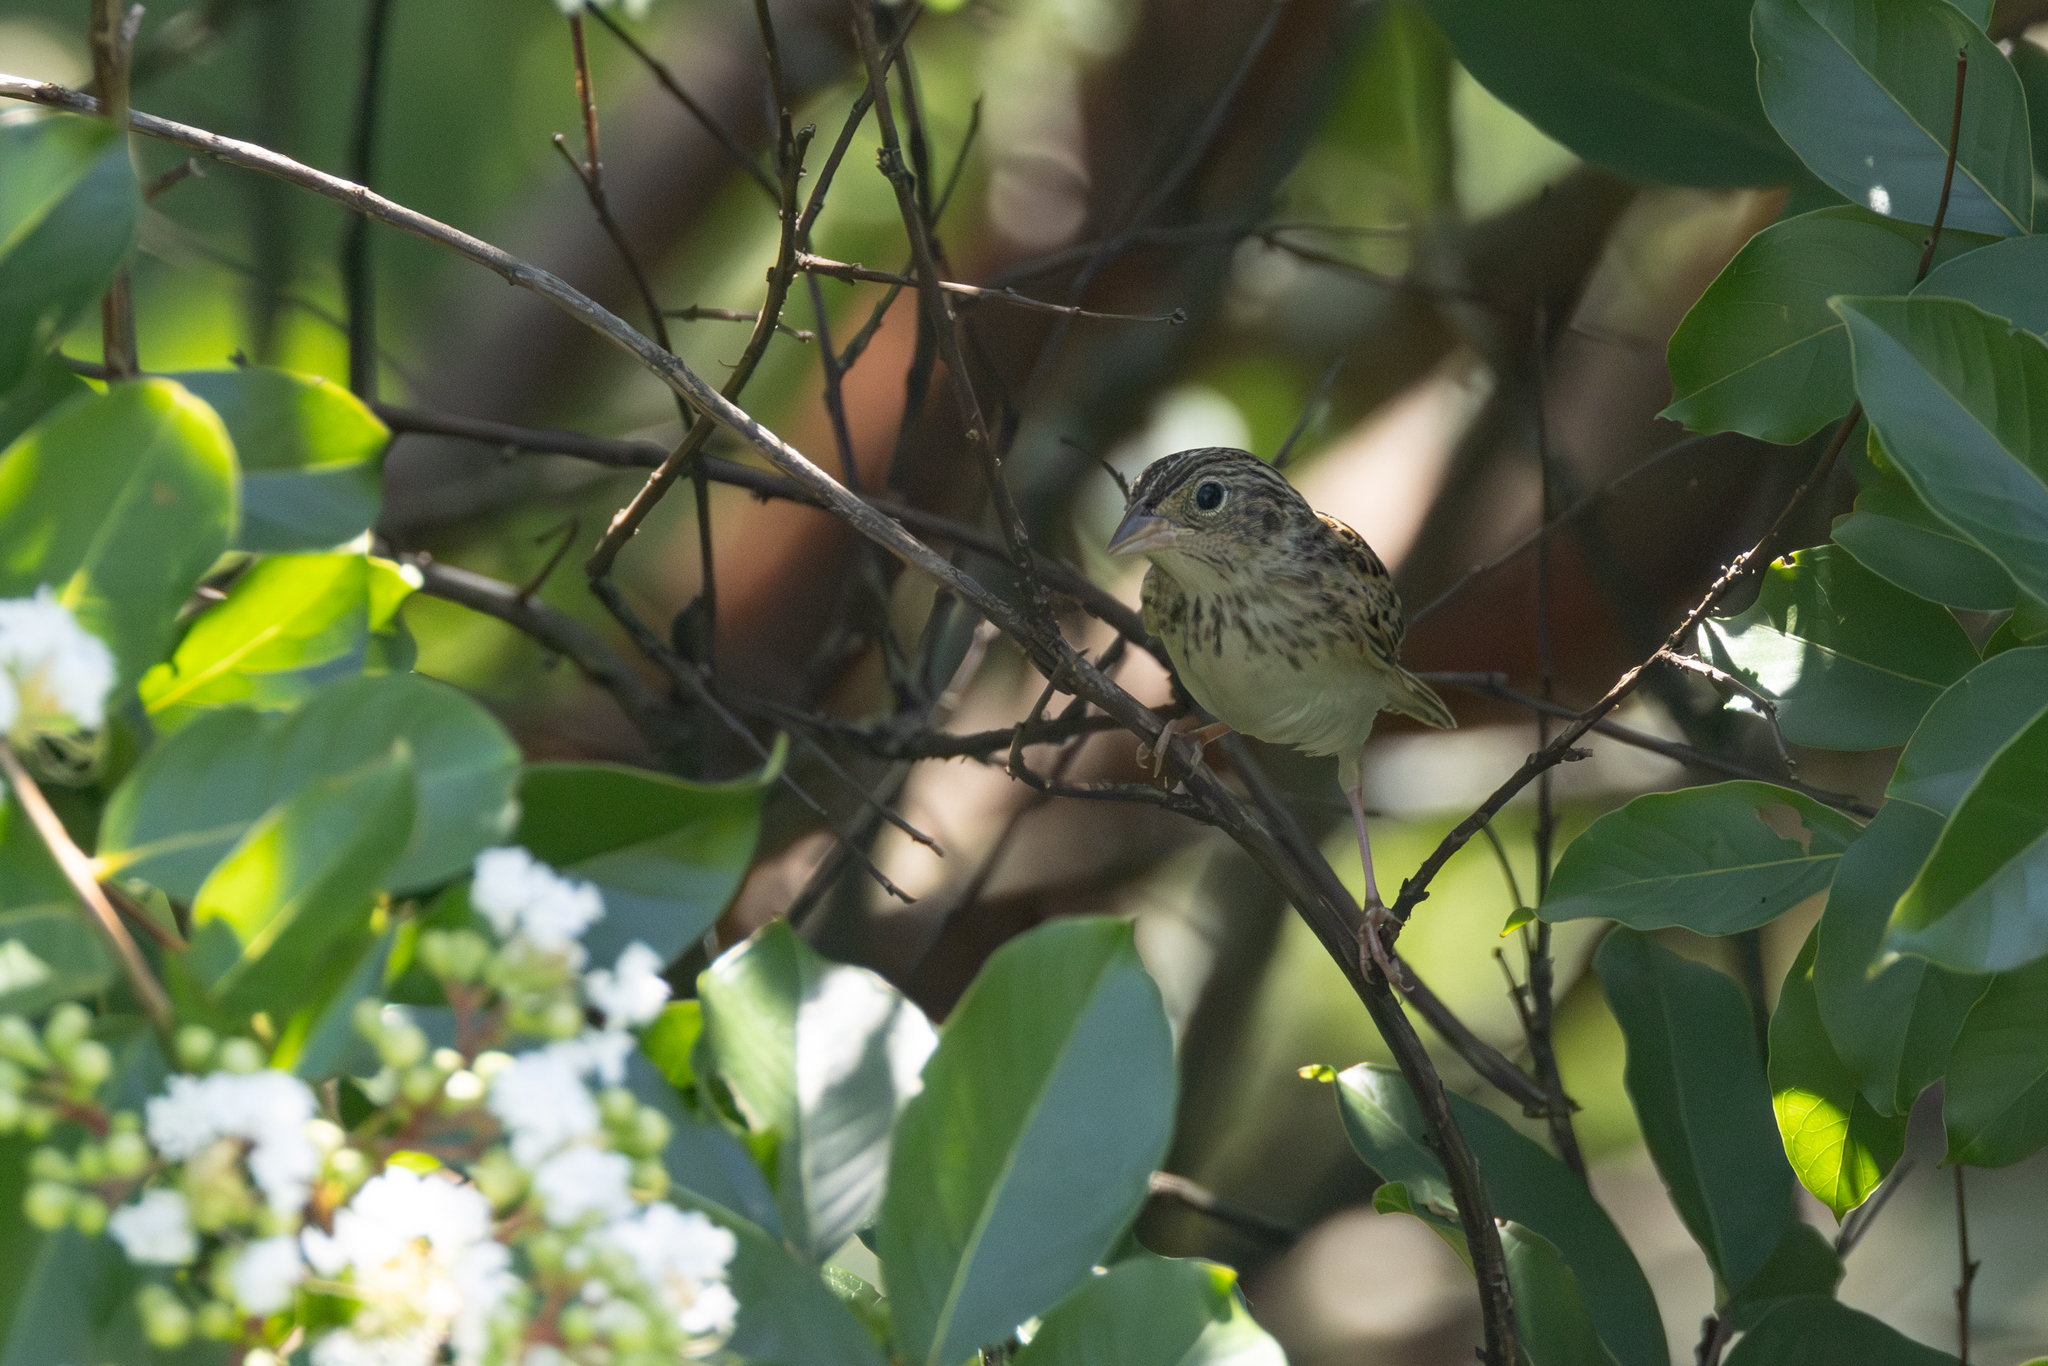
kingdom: Animalia
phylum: Chordata
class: Aves
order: Passeriformes
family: Passerellidae
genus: Ammodramus
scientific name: Ammodramus savannarum
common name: Grasshopper sparrow
